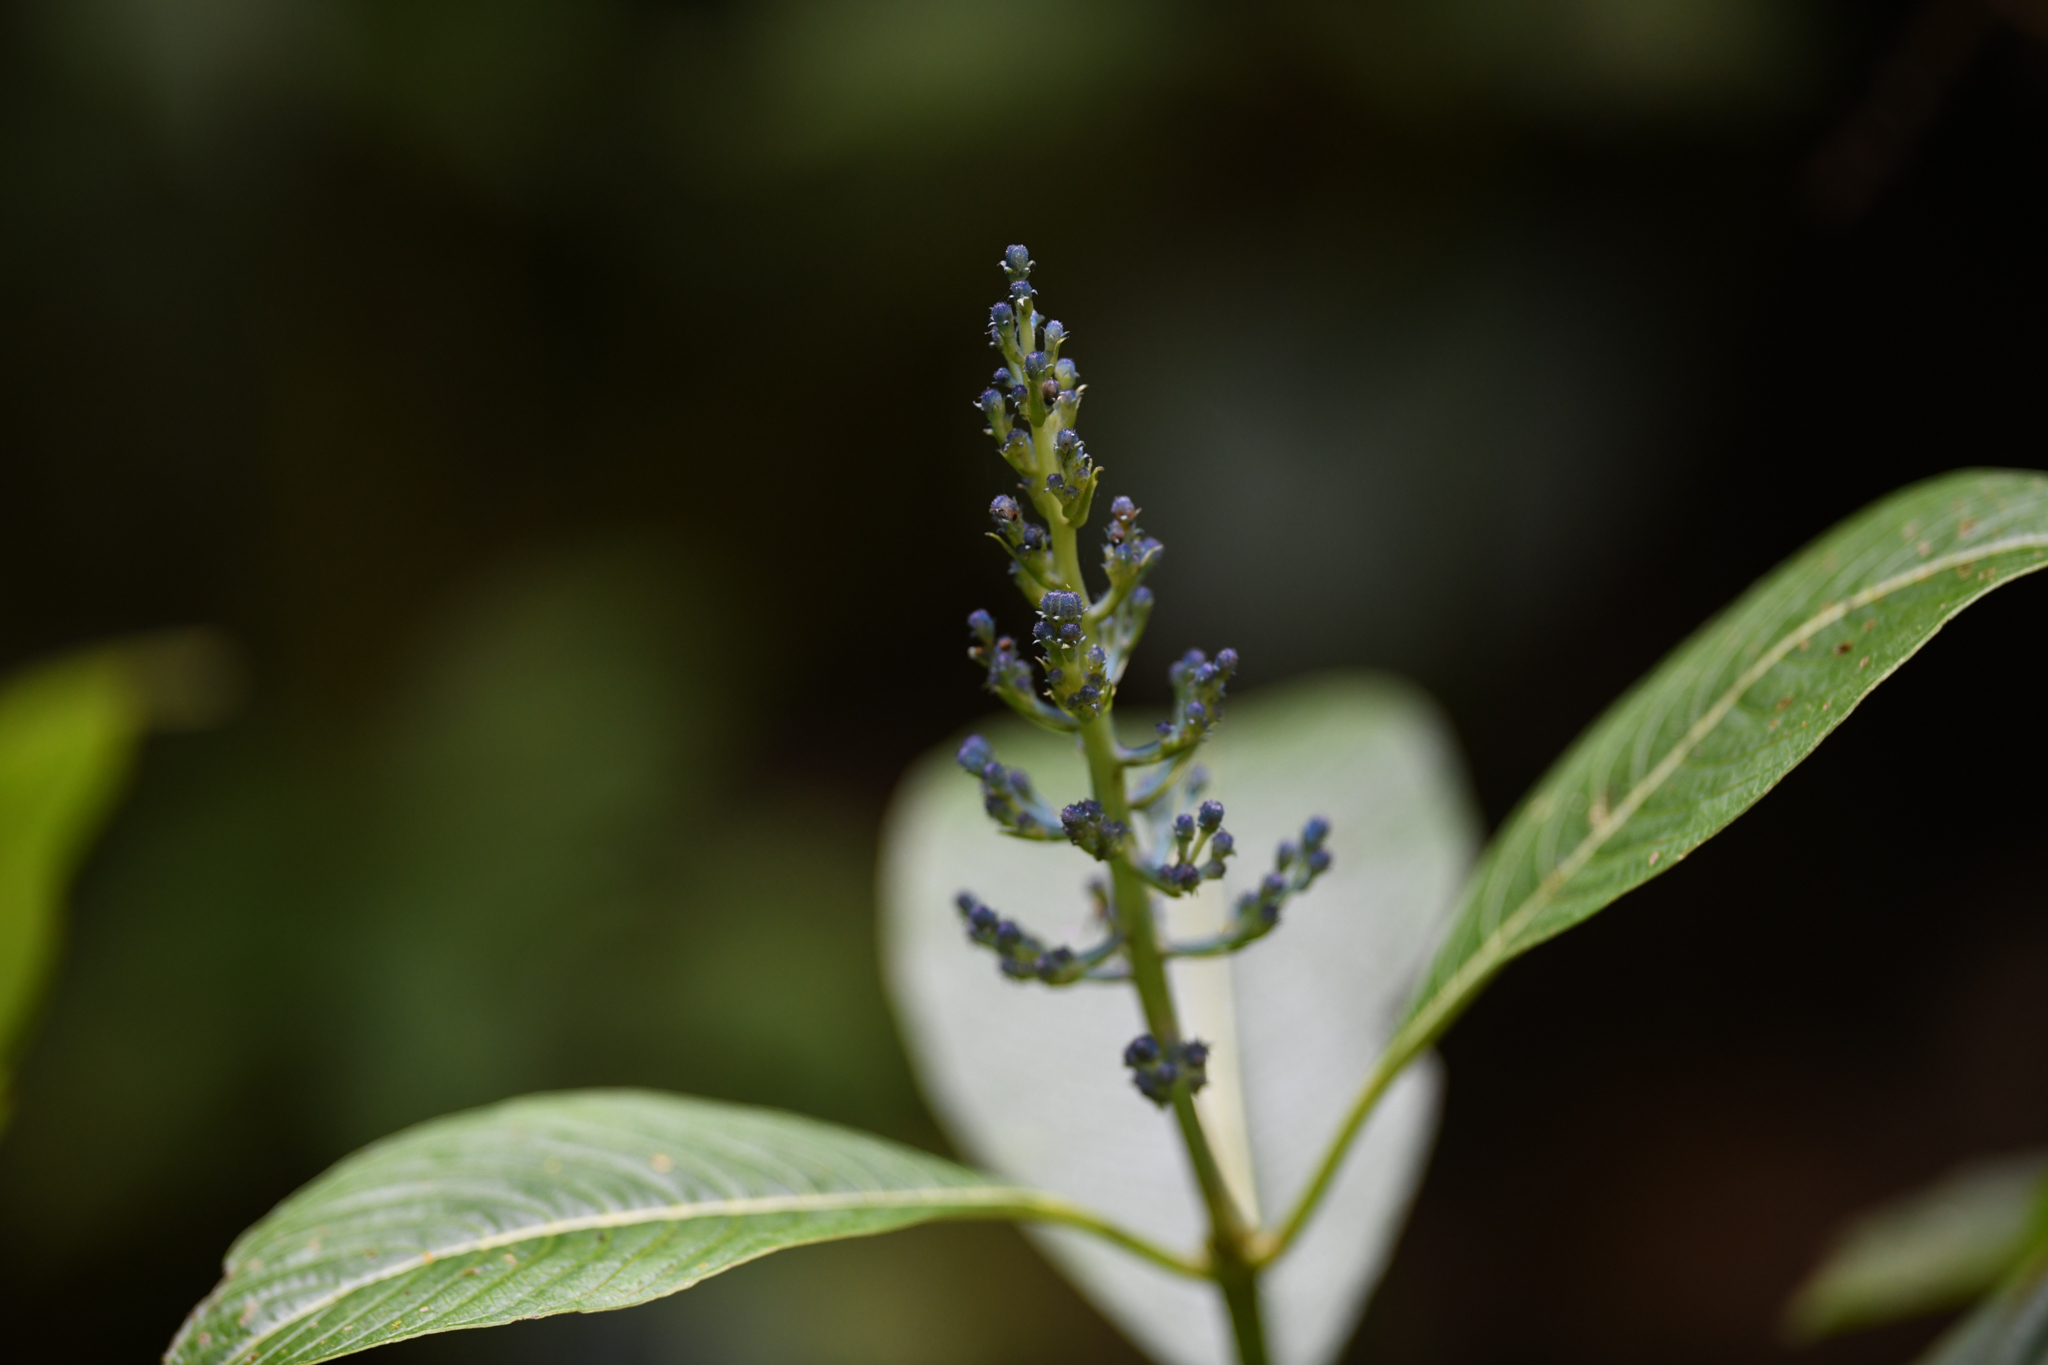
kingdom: Plantae
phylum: Tracheophyta
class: Magnoliopsida
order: Gentianales
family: Rubiaceae
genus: Palicourea
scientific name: Palicourea brenesii
